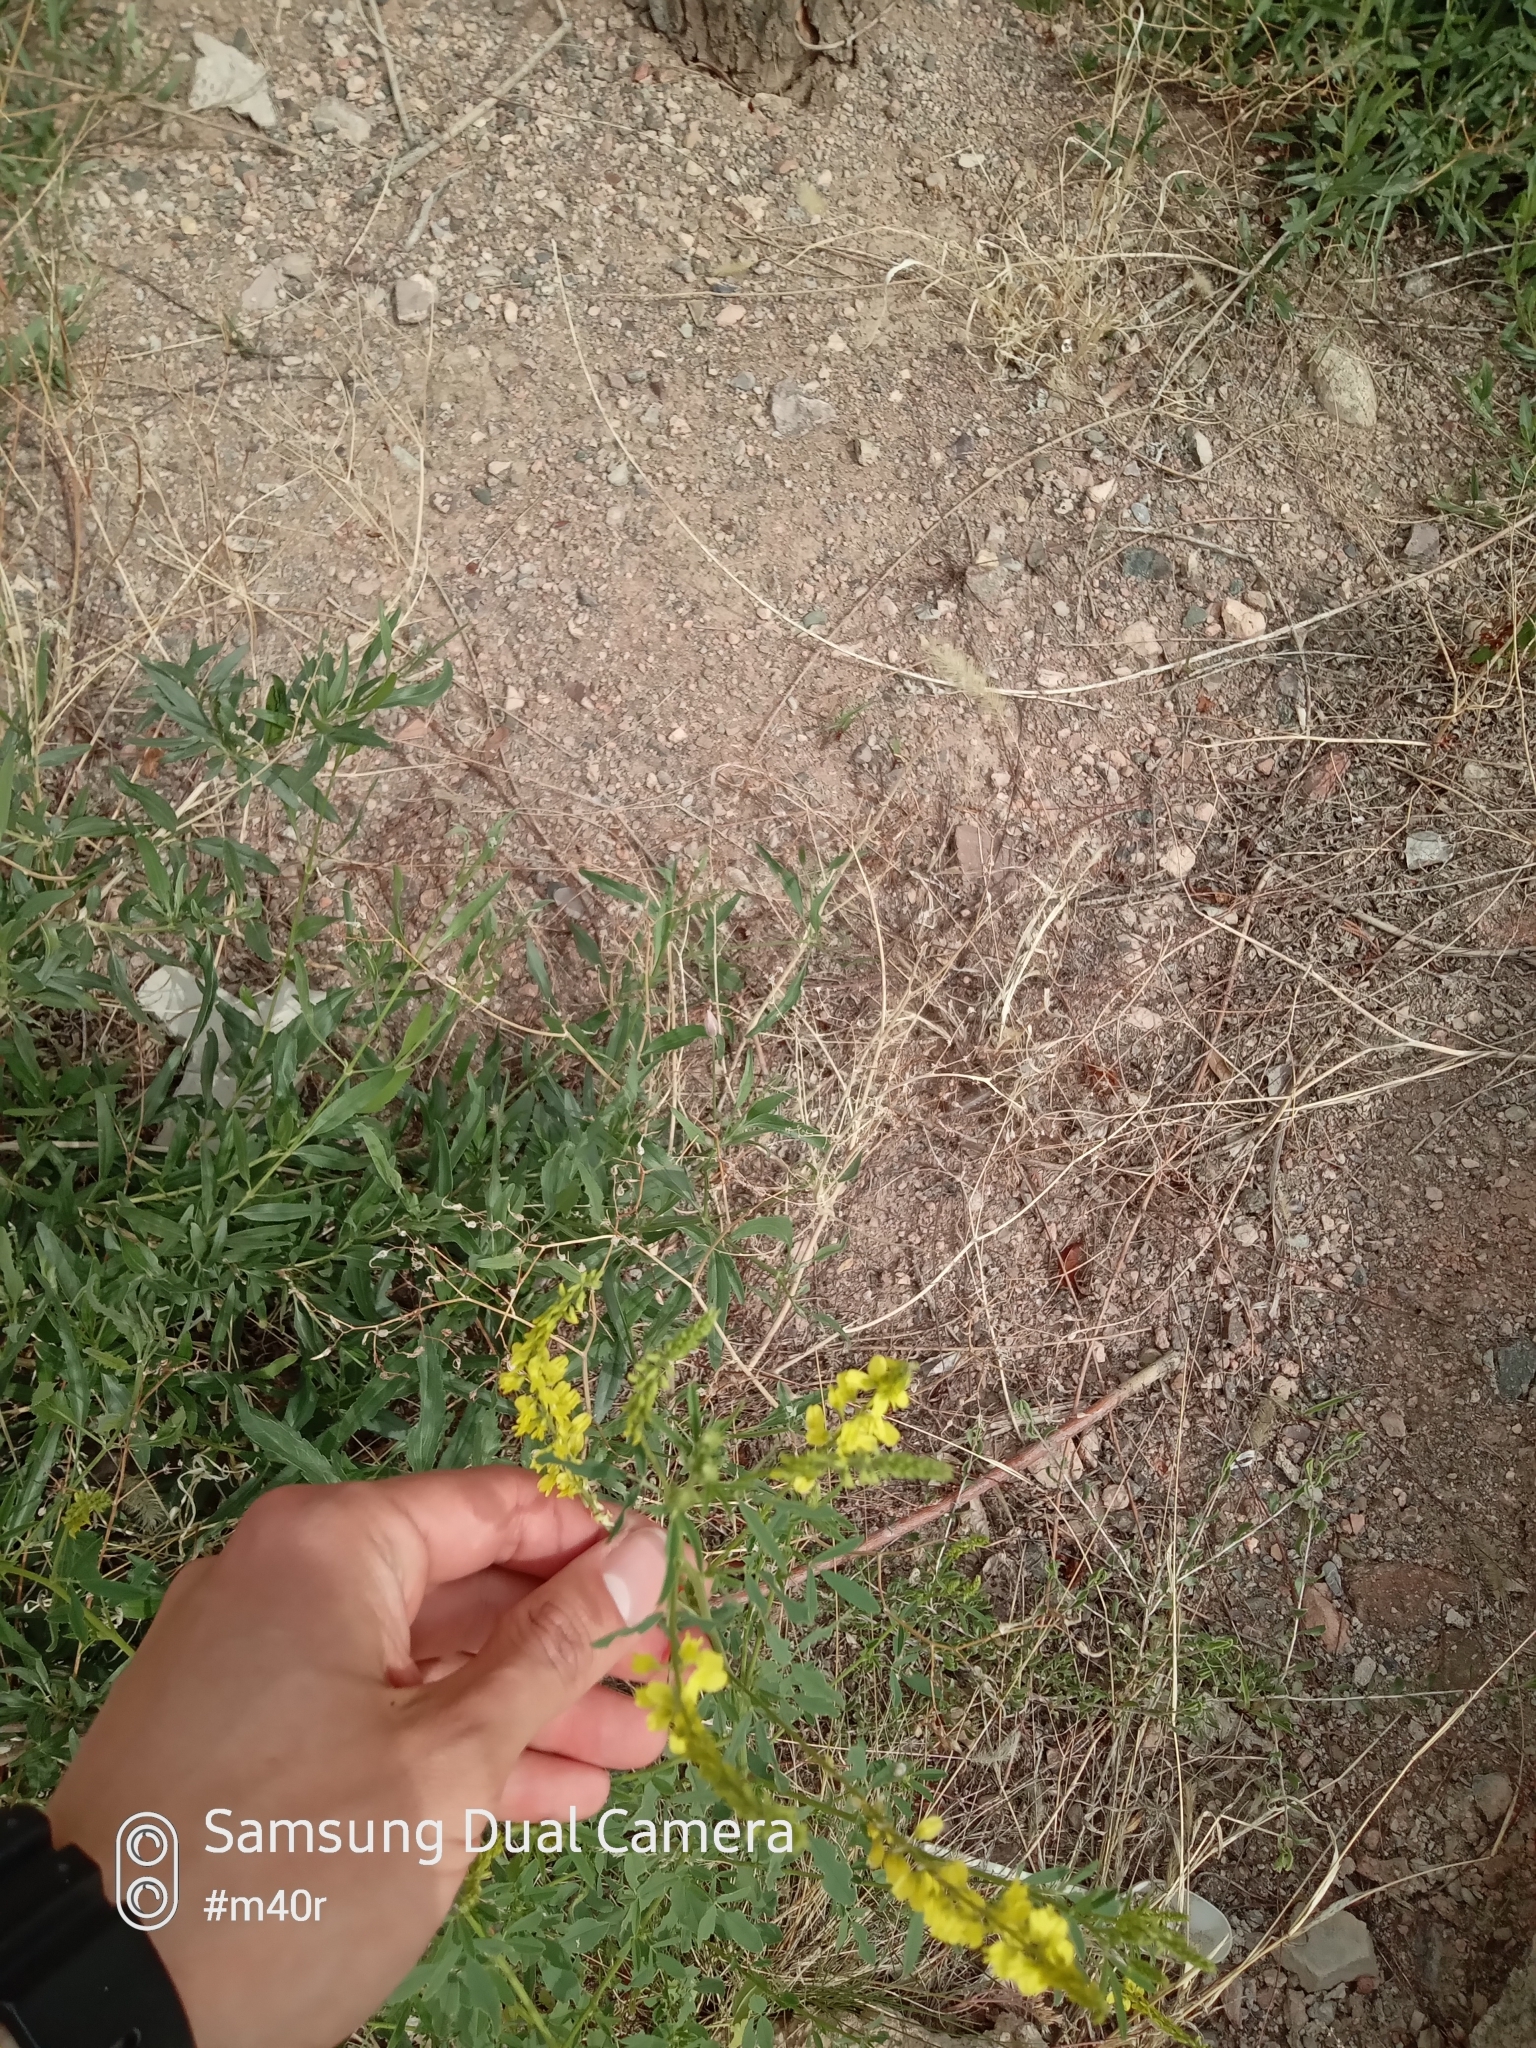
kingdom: Plantae
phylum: Tracheophyta
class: Magnoliopsida
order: Fabales
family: Fabaceae
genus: Melilotus
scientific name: Melilotus officinalis
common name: Sweetclover
